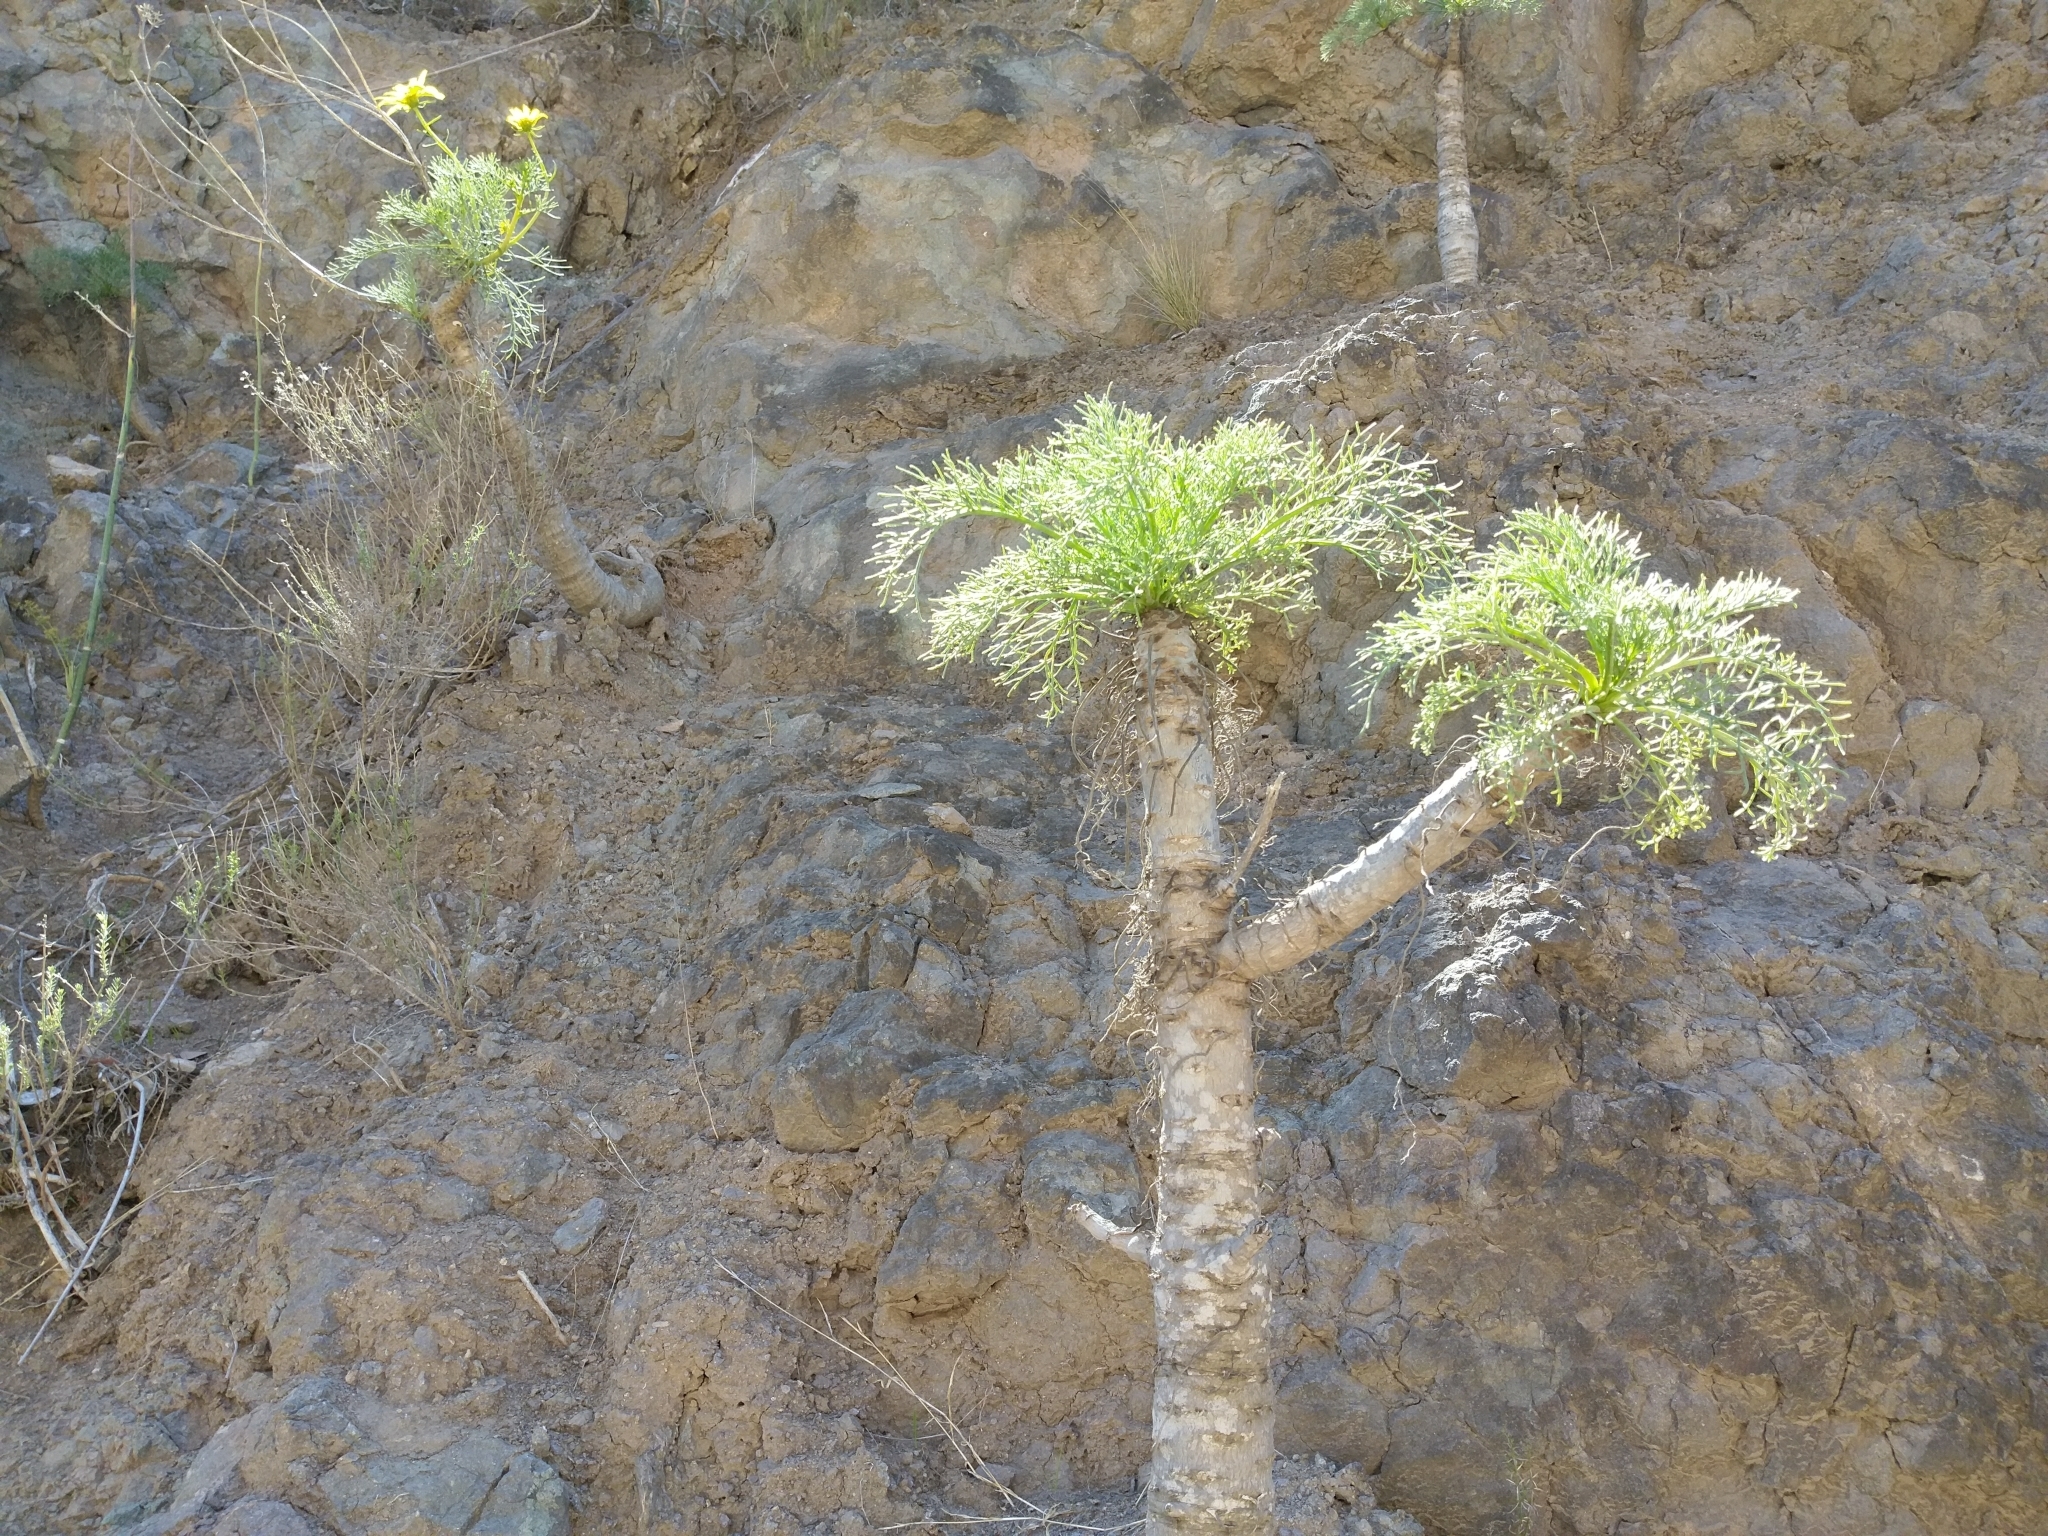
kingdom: Plantae
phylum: Tracheophyta
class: Magnoliopsida
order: Asterales
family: Asteraceae
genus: Coreopsis
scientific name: Coreopsis gigantea
